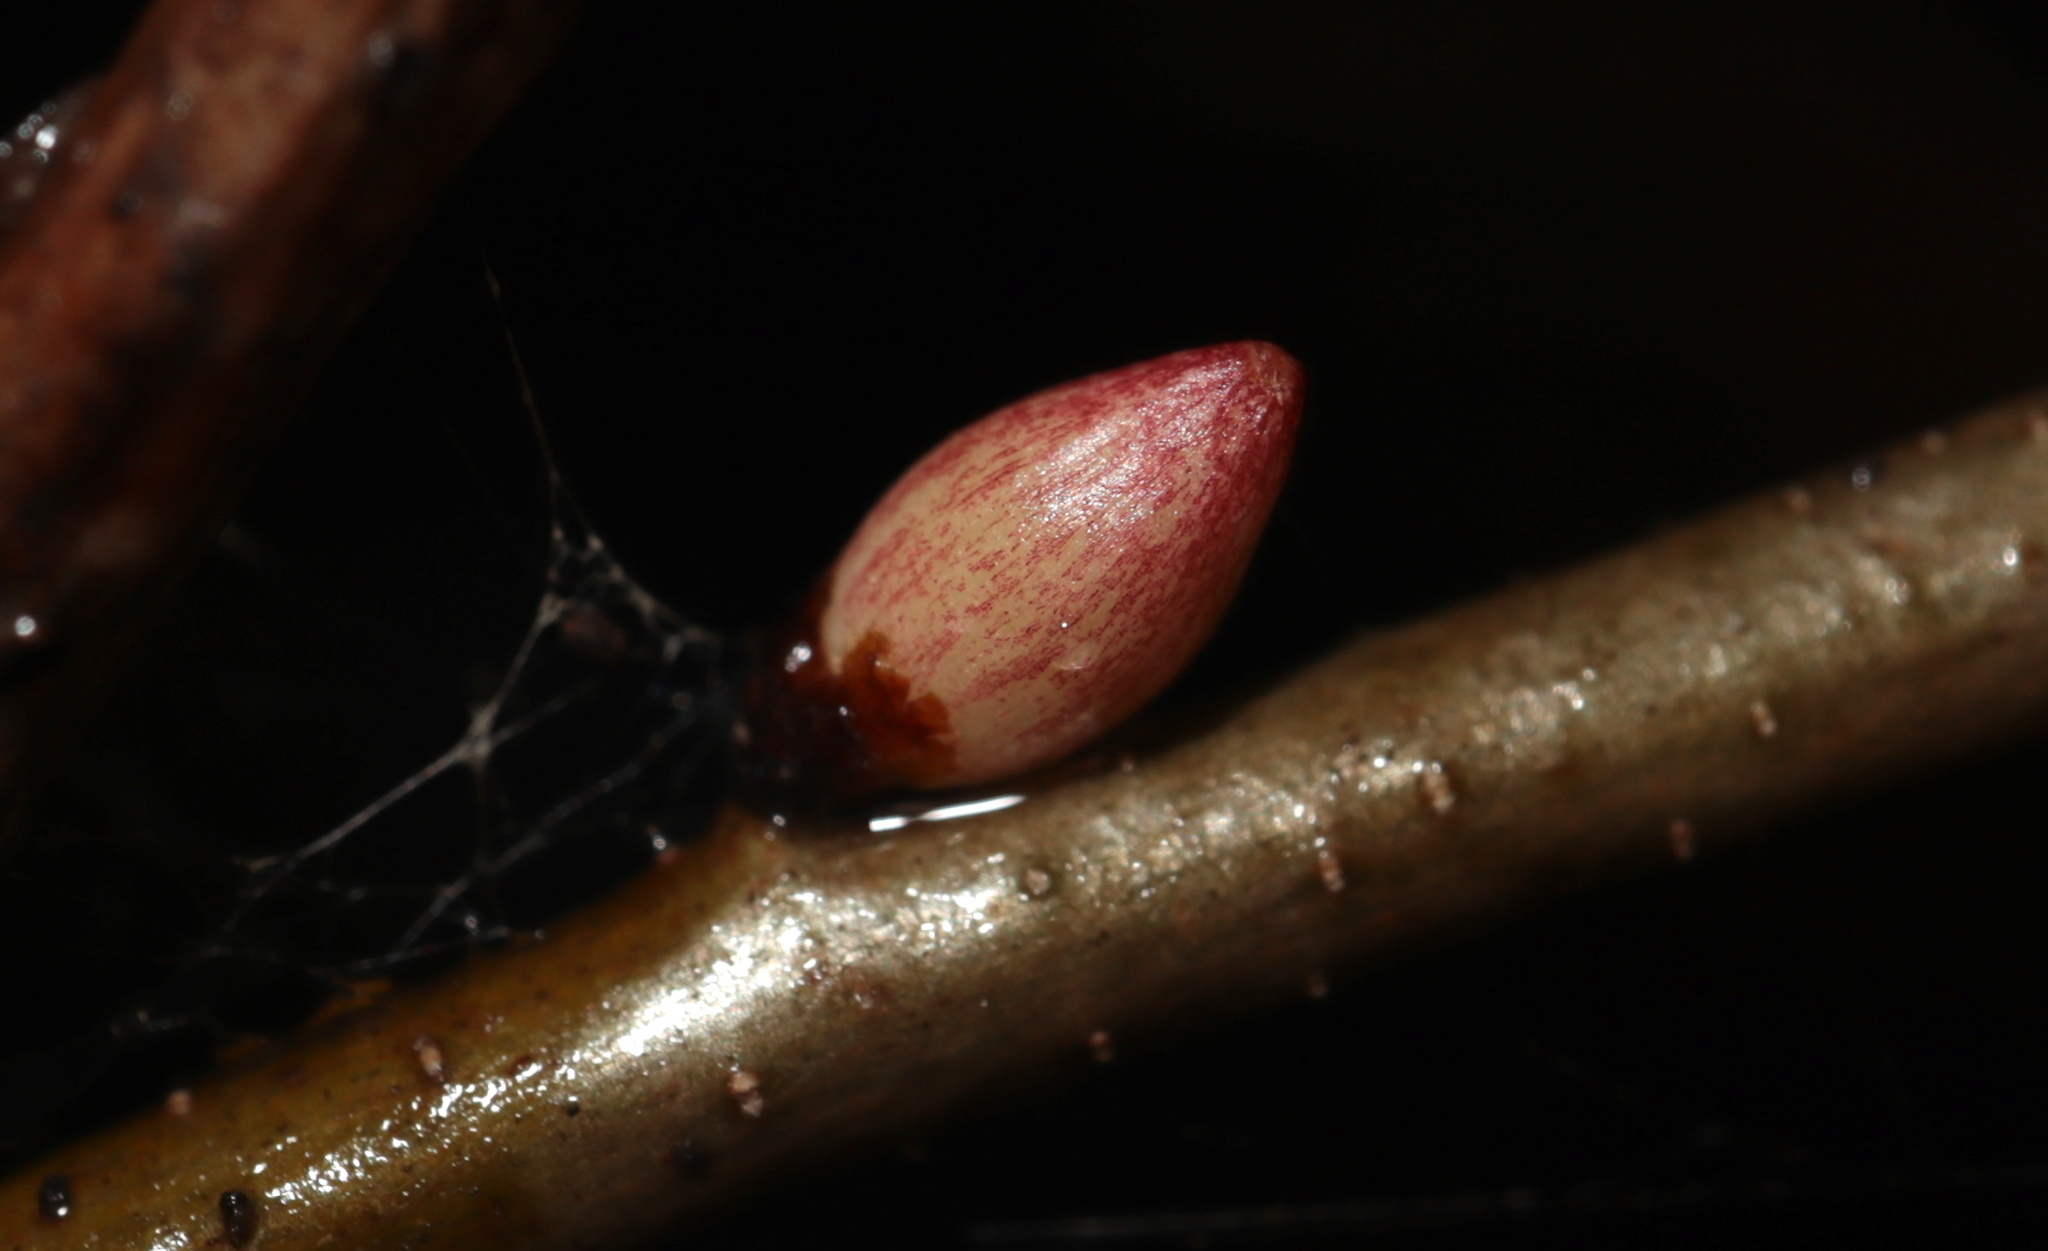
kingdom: Animalia
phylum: Arthropoda
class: Insecta
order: Hymenoptera
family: Cynipidae
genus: Andricus
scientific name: Andricus
